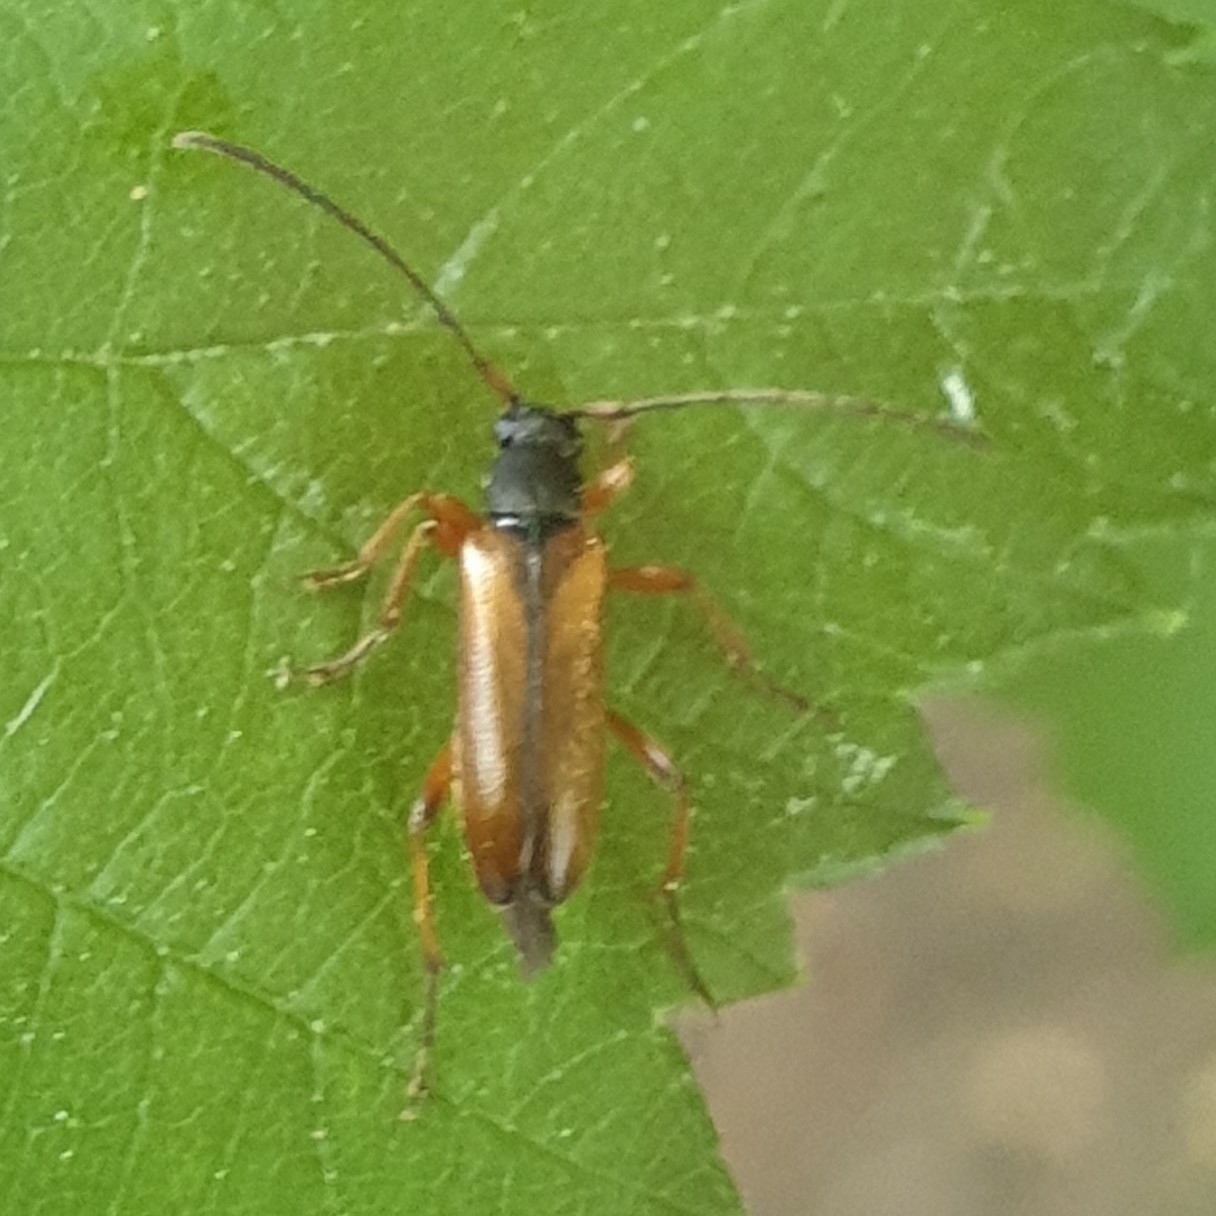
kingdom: Animalia
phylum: Arthropoda
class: Insecta
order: Coleoptera
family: Cerambycidae
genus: Alosterna
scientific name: Alosterna tabacicolor
